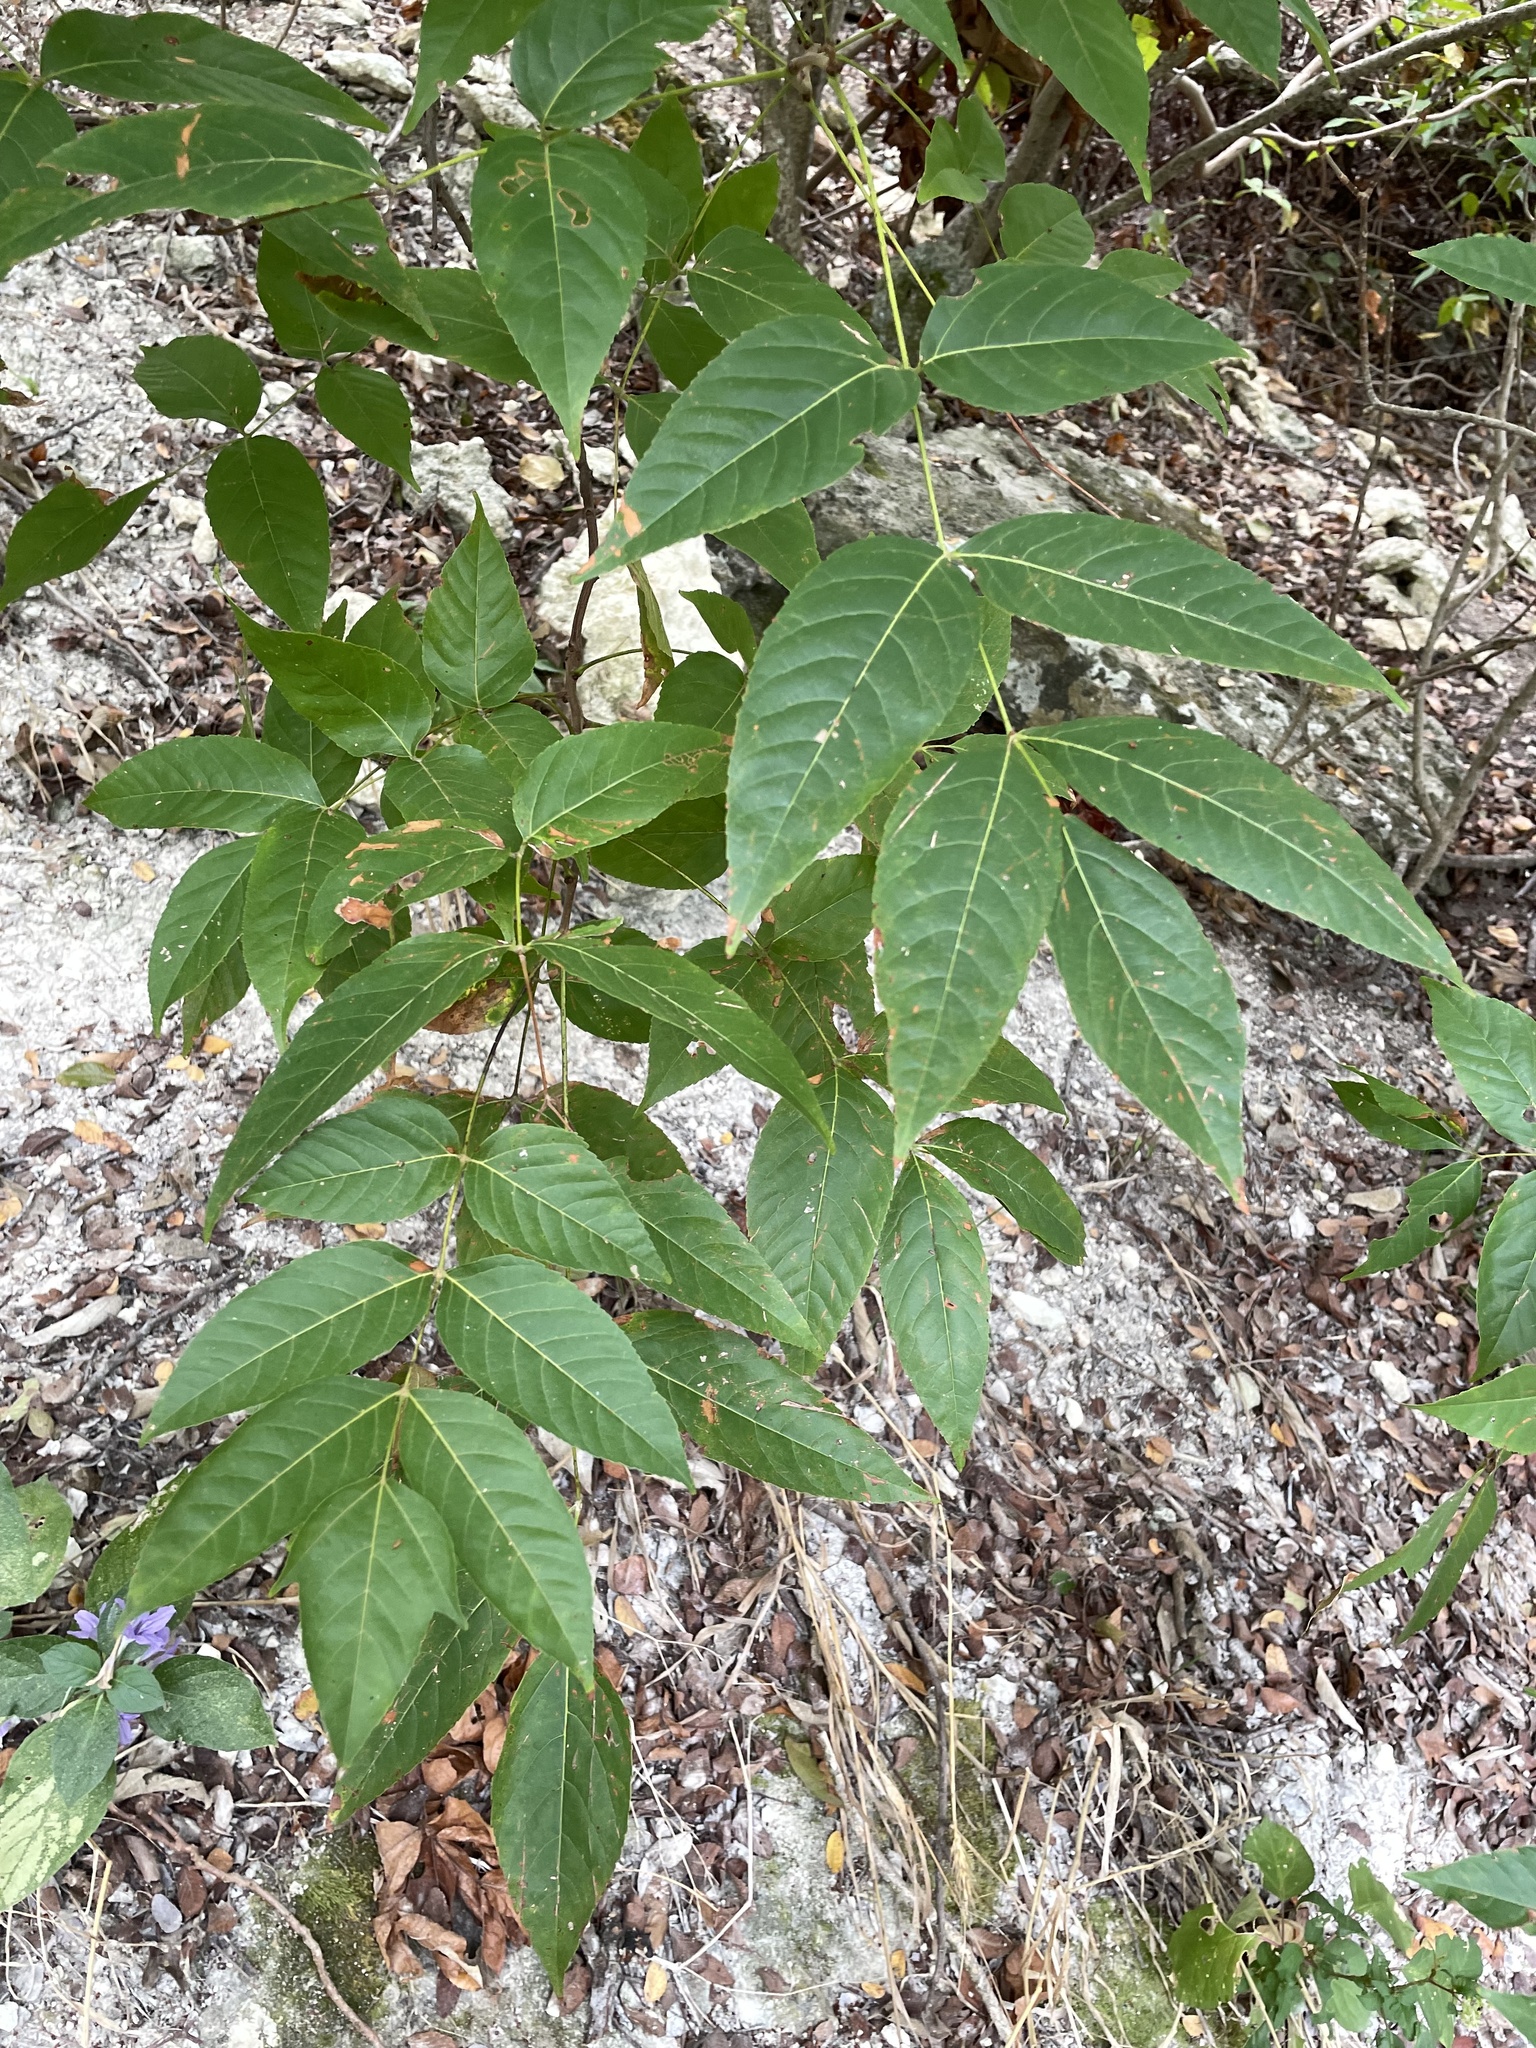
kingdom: Plantae
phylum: Tracheophyta
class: Magnoliopsida
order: Sapindales
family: Sapindaceae
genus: Ungnadia
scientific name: Ungnadia speciosa
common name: Texas-buckeye
